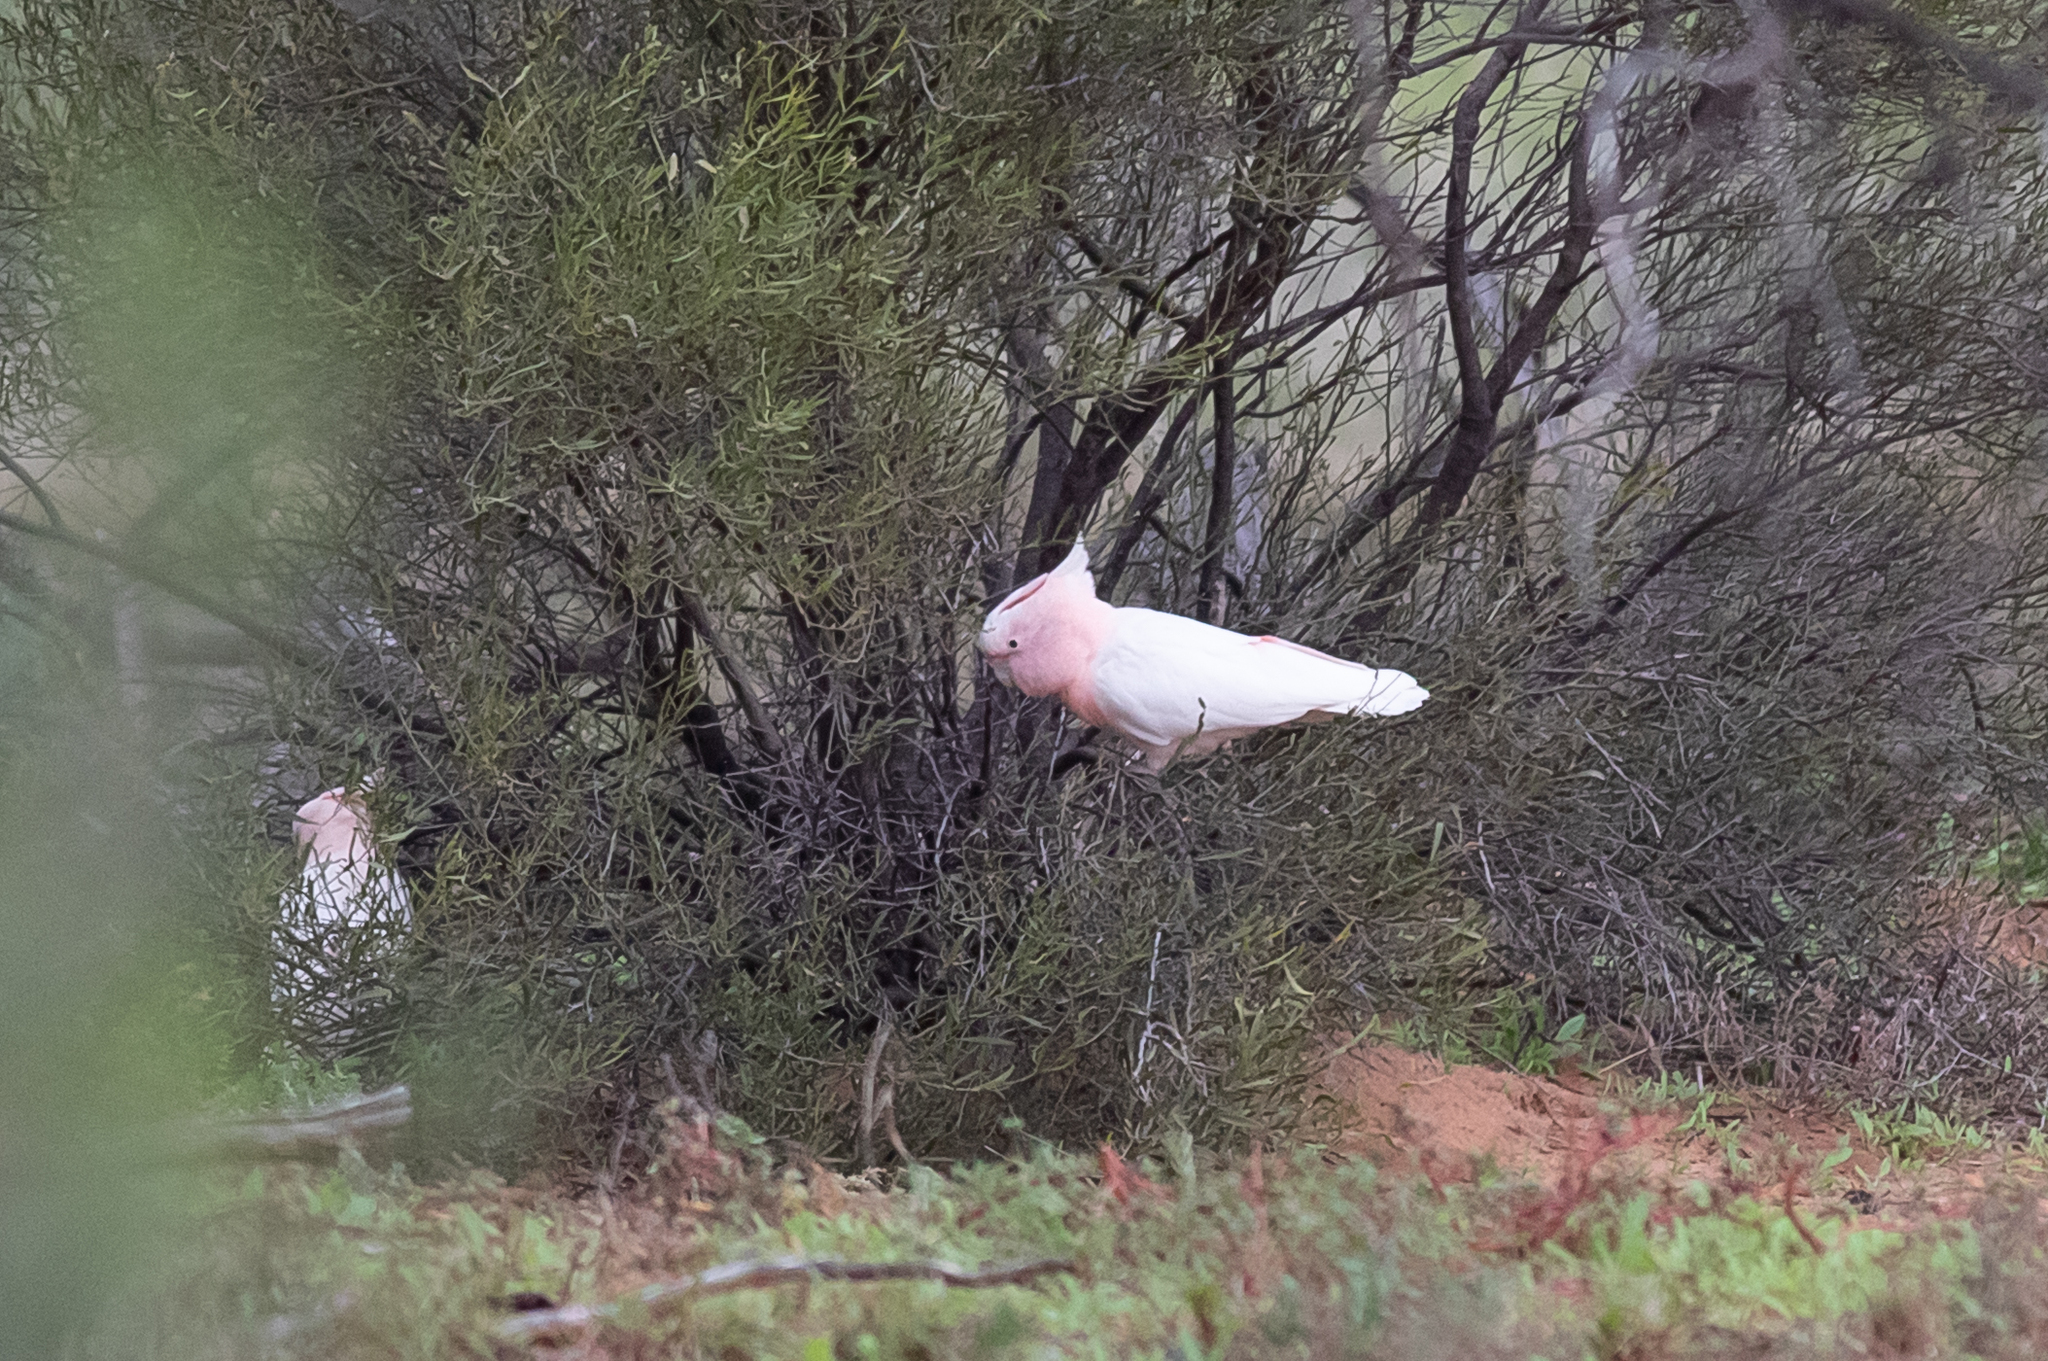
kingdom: Animalia
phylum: Chordata
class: Aves
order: Psittaciformes
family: Psittacidae
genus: Cacatua
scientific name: Cacatua leadbeateri
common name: Major mitchell's cockatoo
